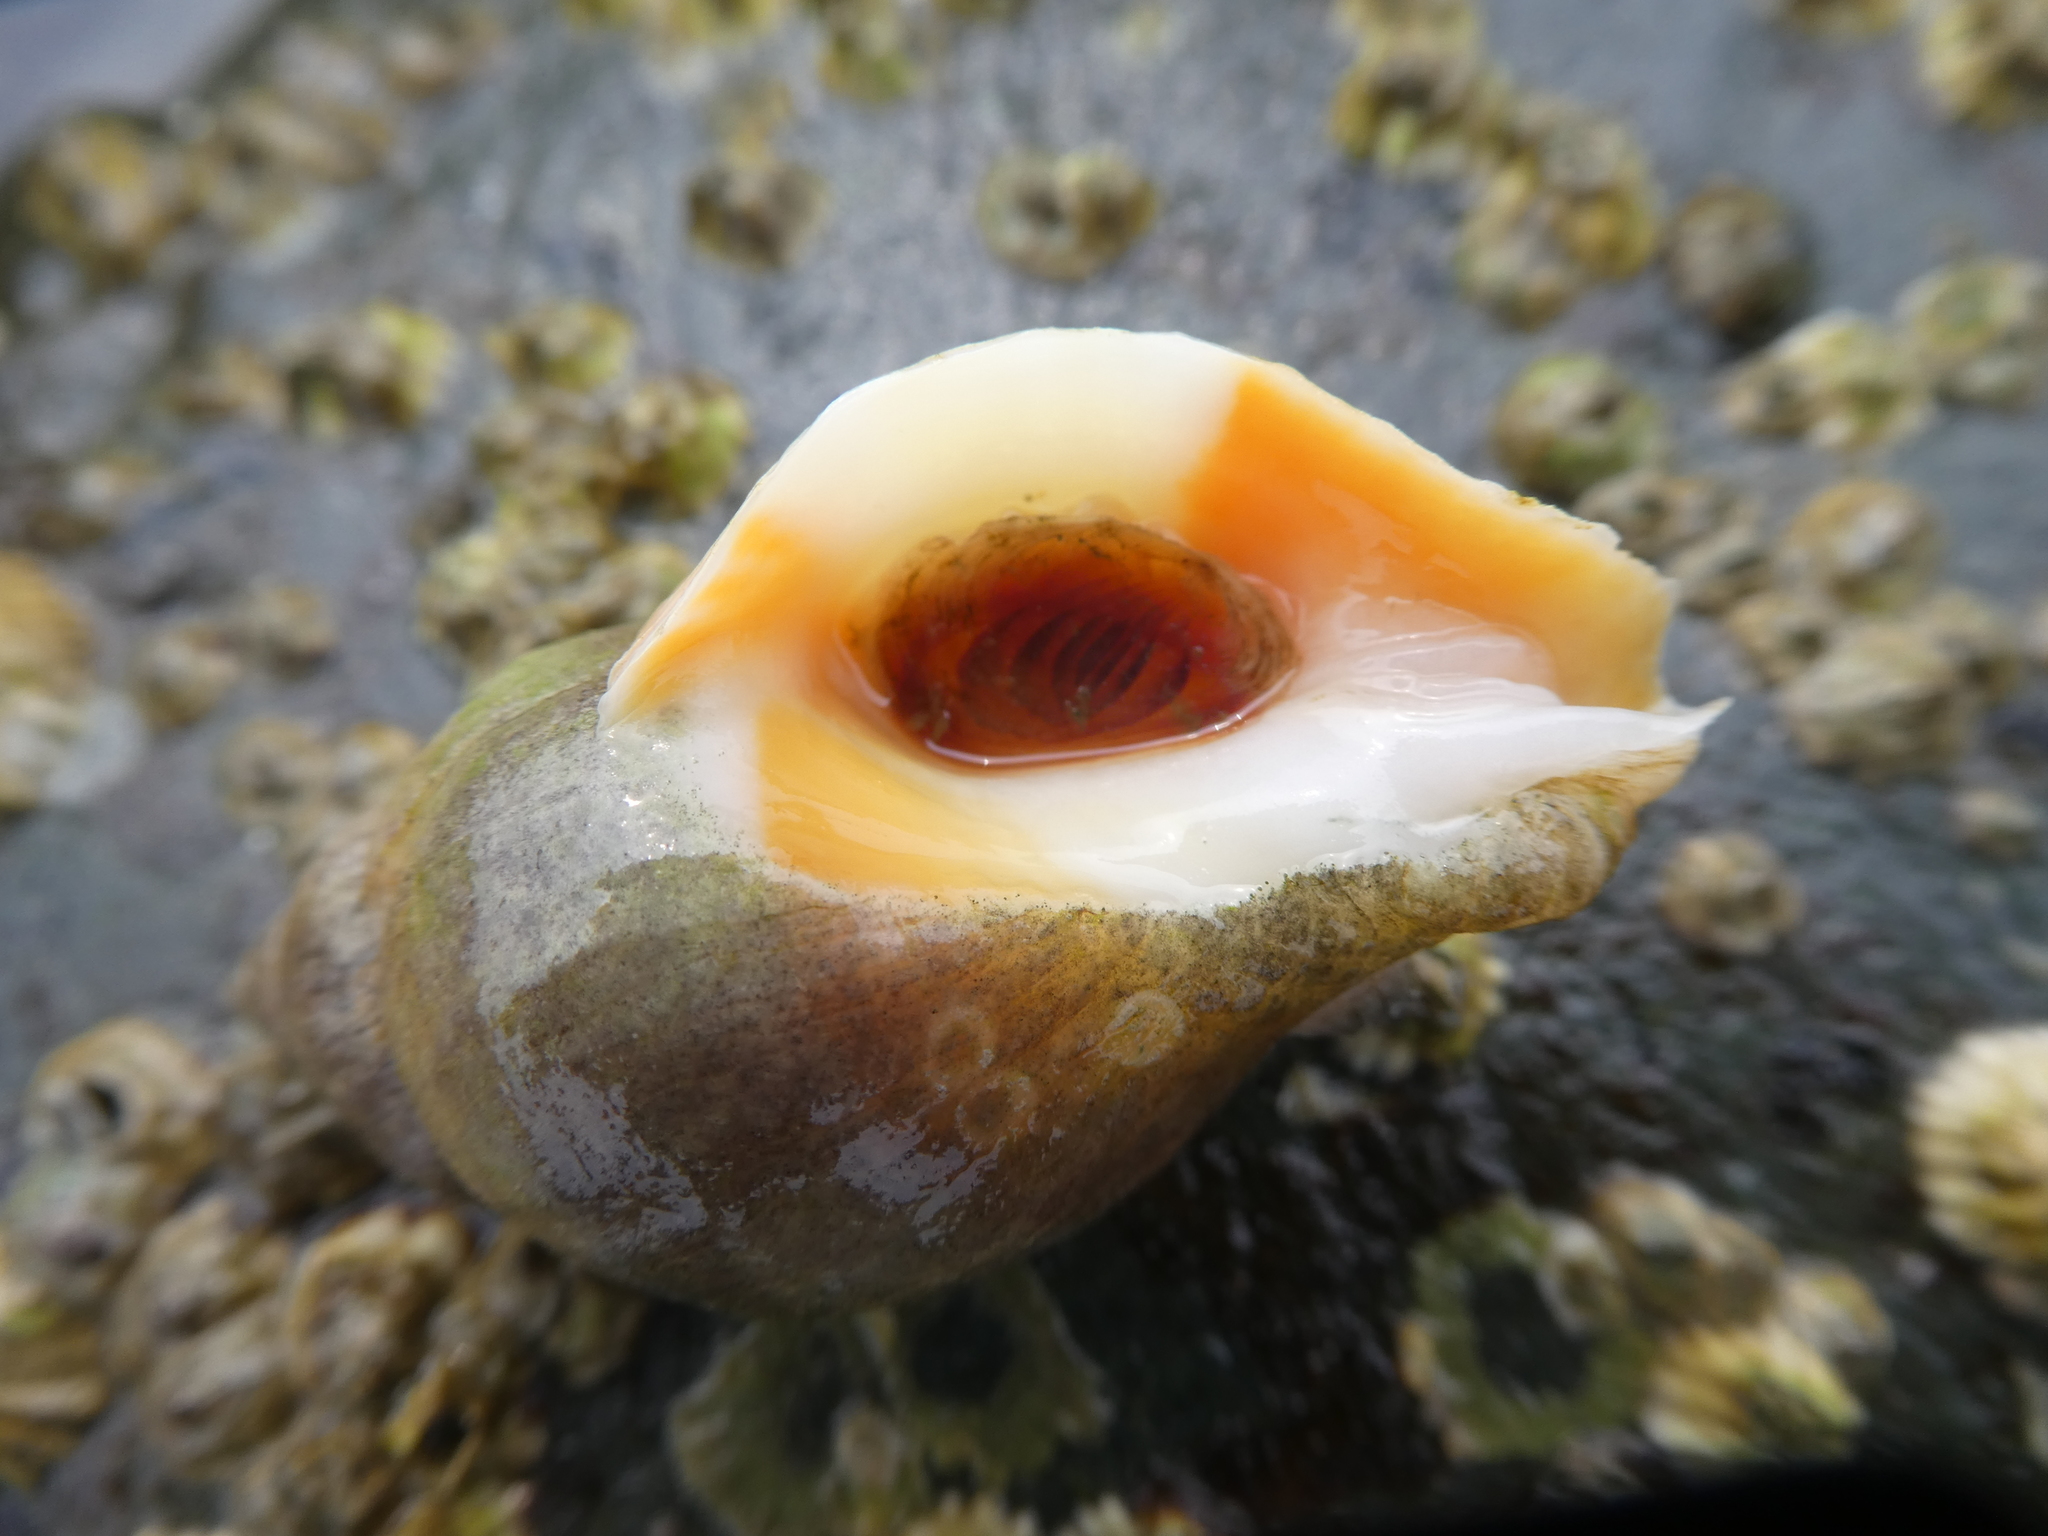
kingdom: Animalia
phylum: Mollusca
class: Gastropoda
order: Neogastropoda
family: Muricidae
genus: Nucella
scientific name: Nucella lamellosa
